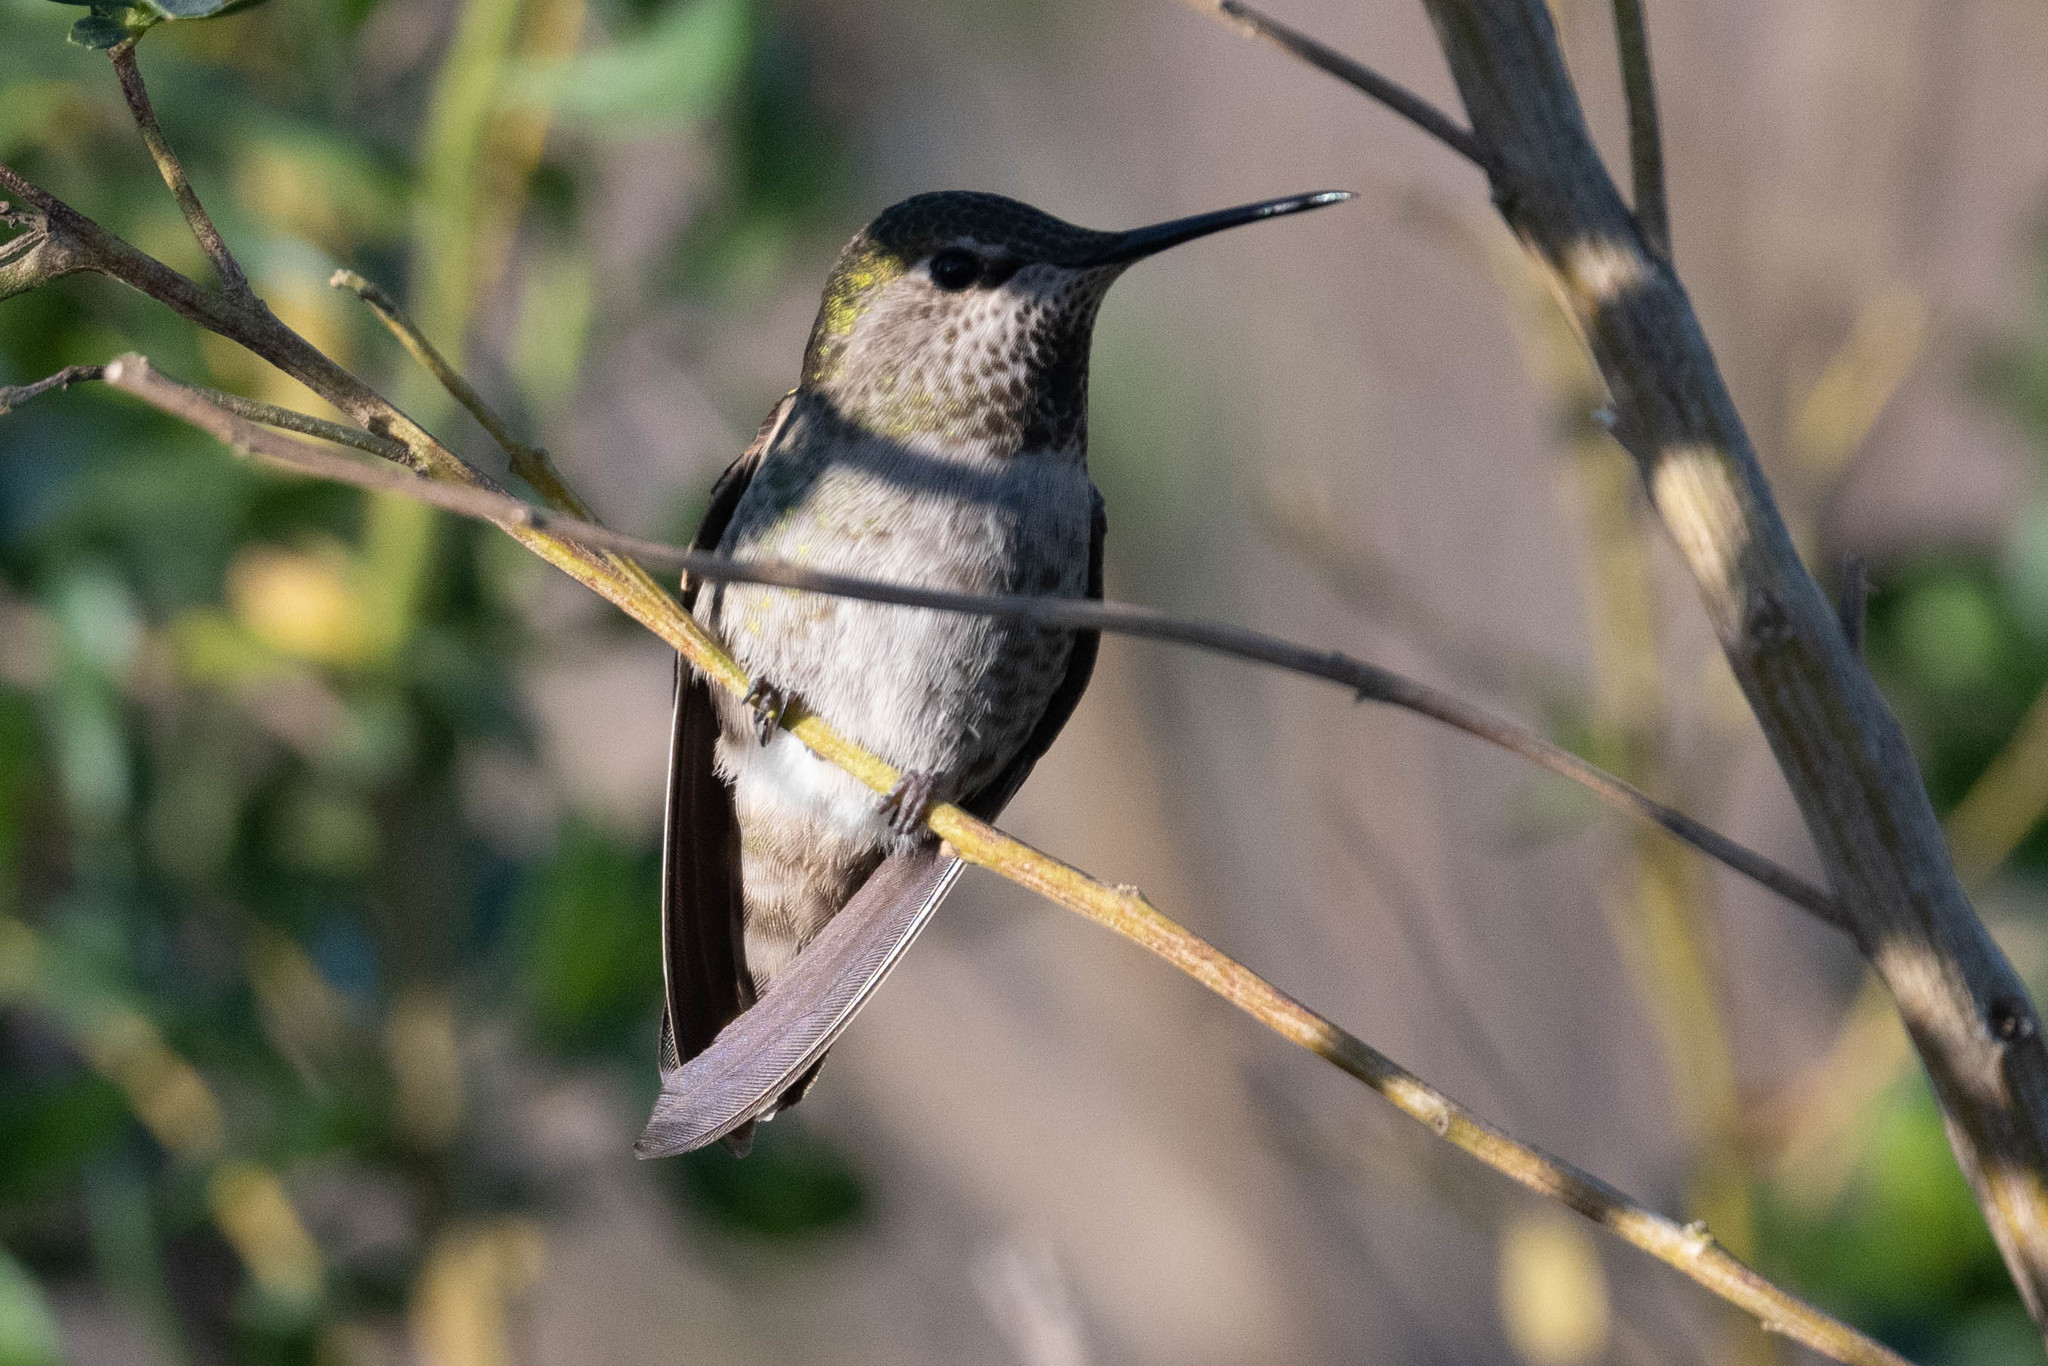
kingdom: Animalia
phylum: Chordata
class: Aves
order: Apodiformes
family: Trochilidae
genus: Calypte
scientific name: Calypte anna
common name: Anna's hummingbird
